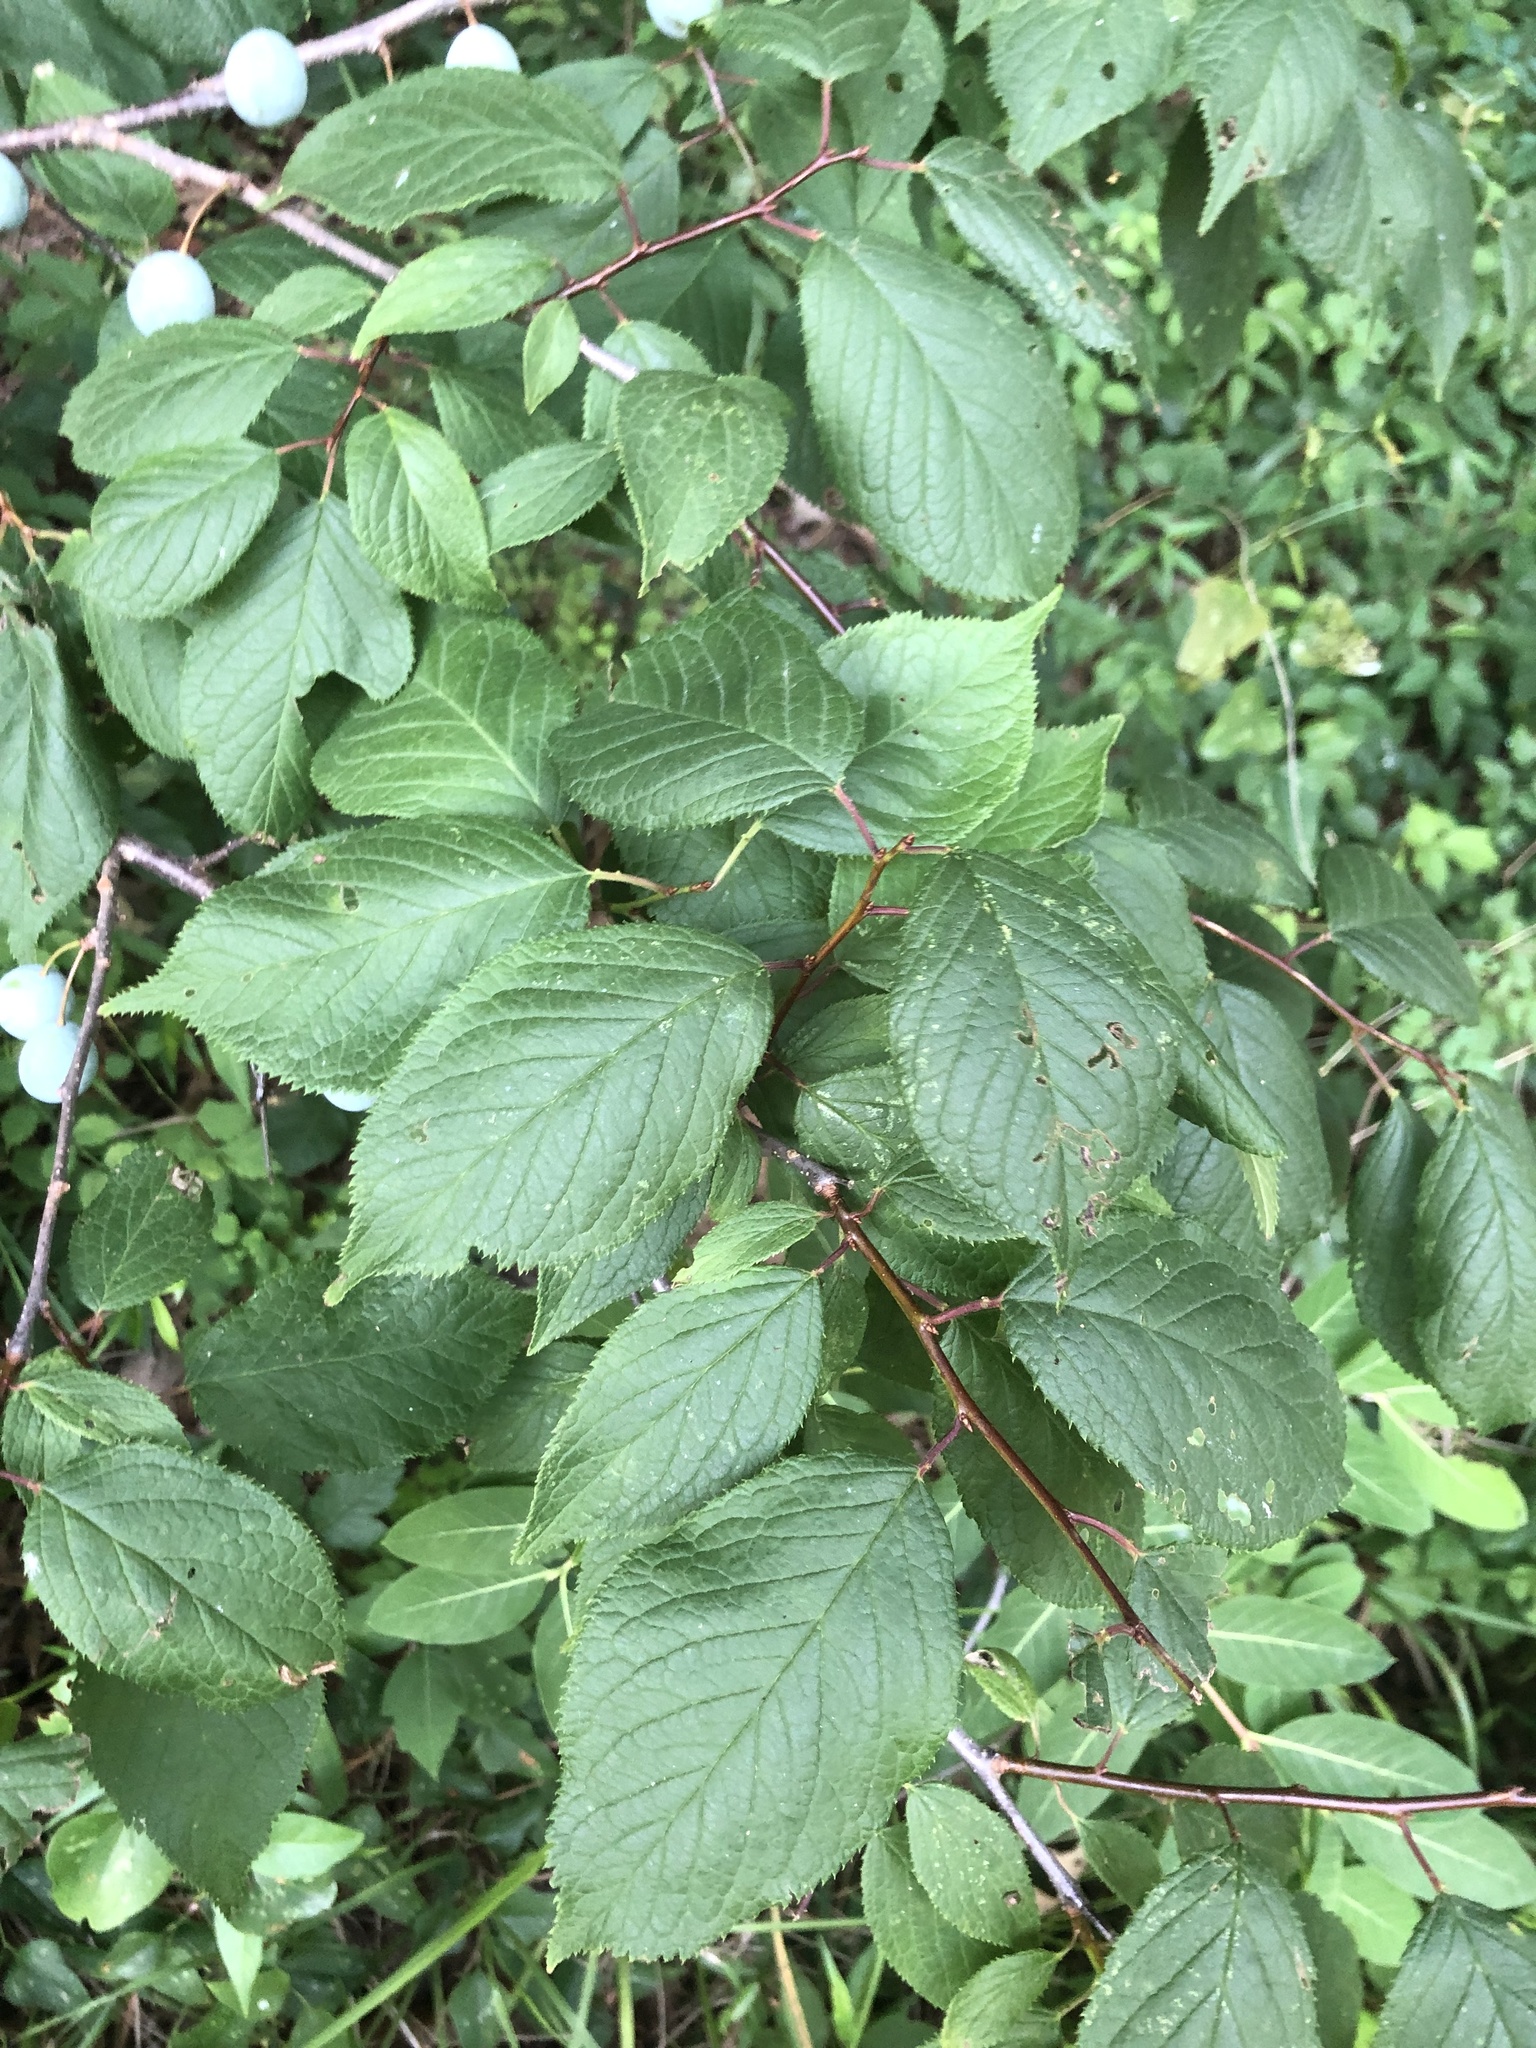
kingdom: Plantae
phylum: Tracheophyta
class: Magnoliopsida
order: Rosales
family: Rosaceae
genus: Prunus
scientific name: Prunus mexicana
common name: Mexican plum
